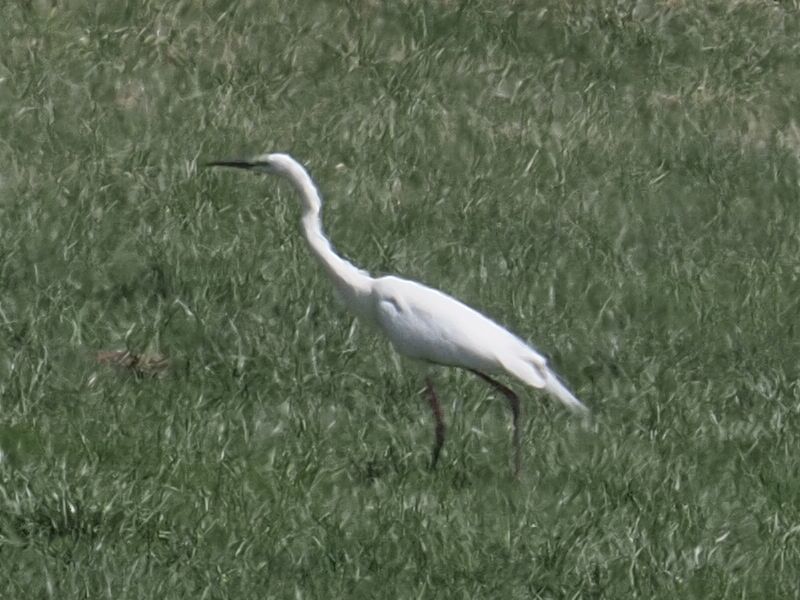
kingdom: Animalia
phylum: Chordata
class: Aves
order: Pelecaniformes
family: Ardeidae
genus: Egretta
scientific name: Egretta garzetta
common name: Little egret
